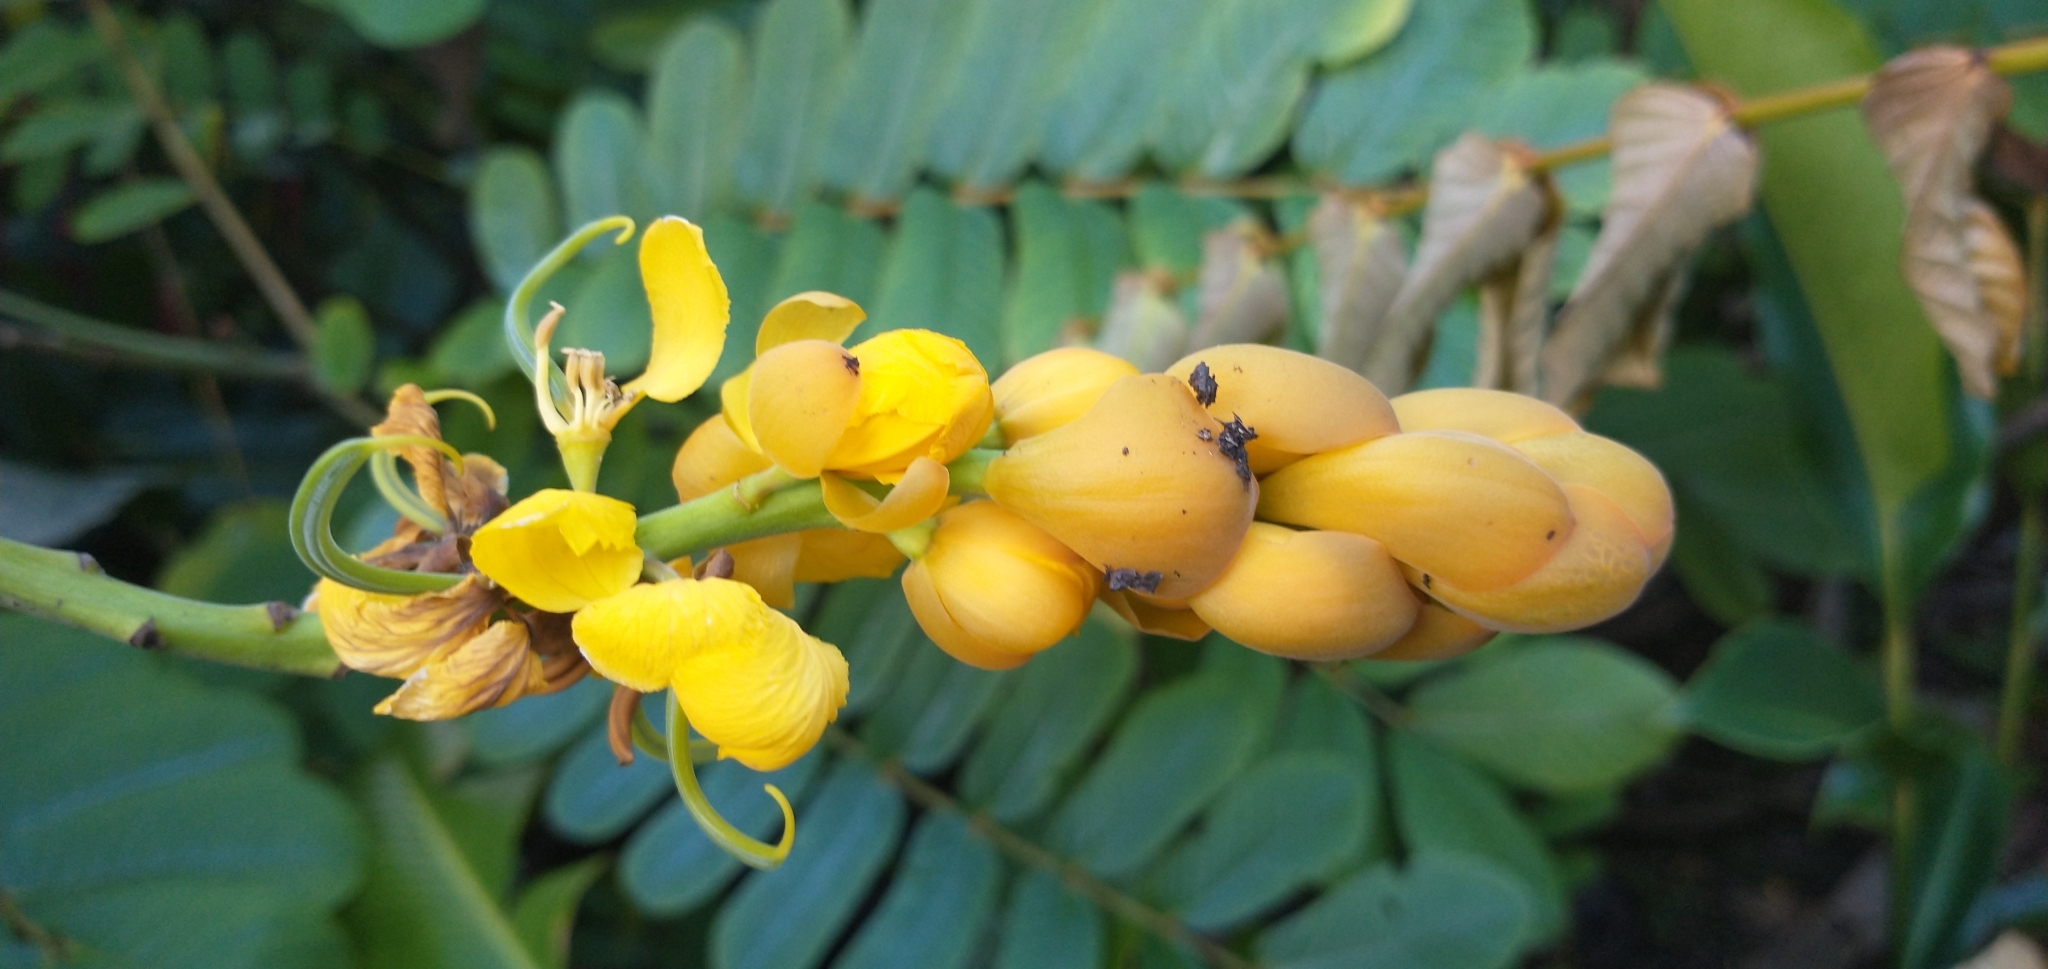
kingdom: Plantae
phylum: Tracheophyta
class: Magnoliopsida
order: Fabales
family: Fabaceae
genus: Senna
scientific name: Senna alata
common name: Emperor's candlesticks
